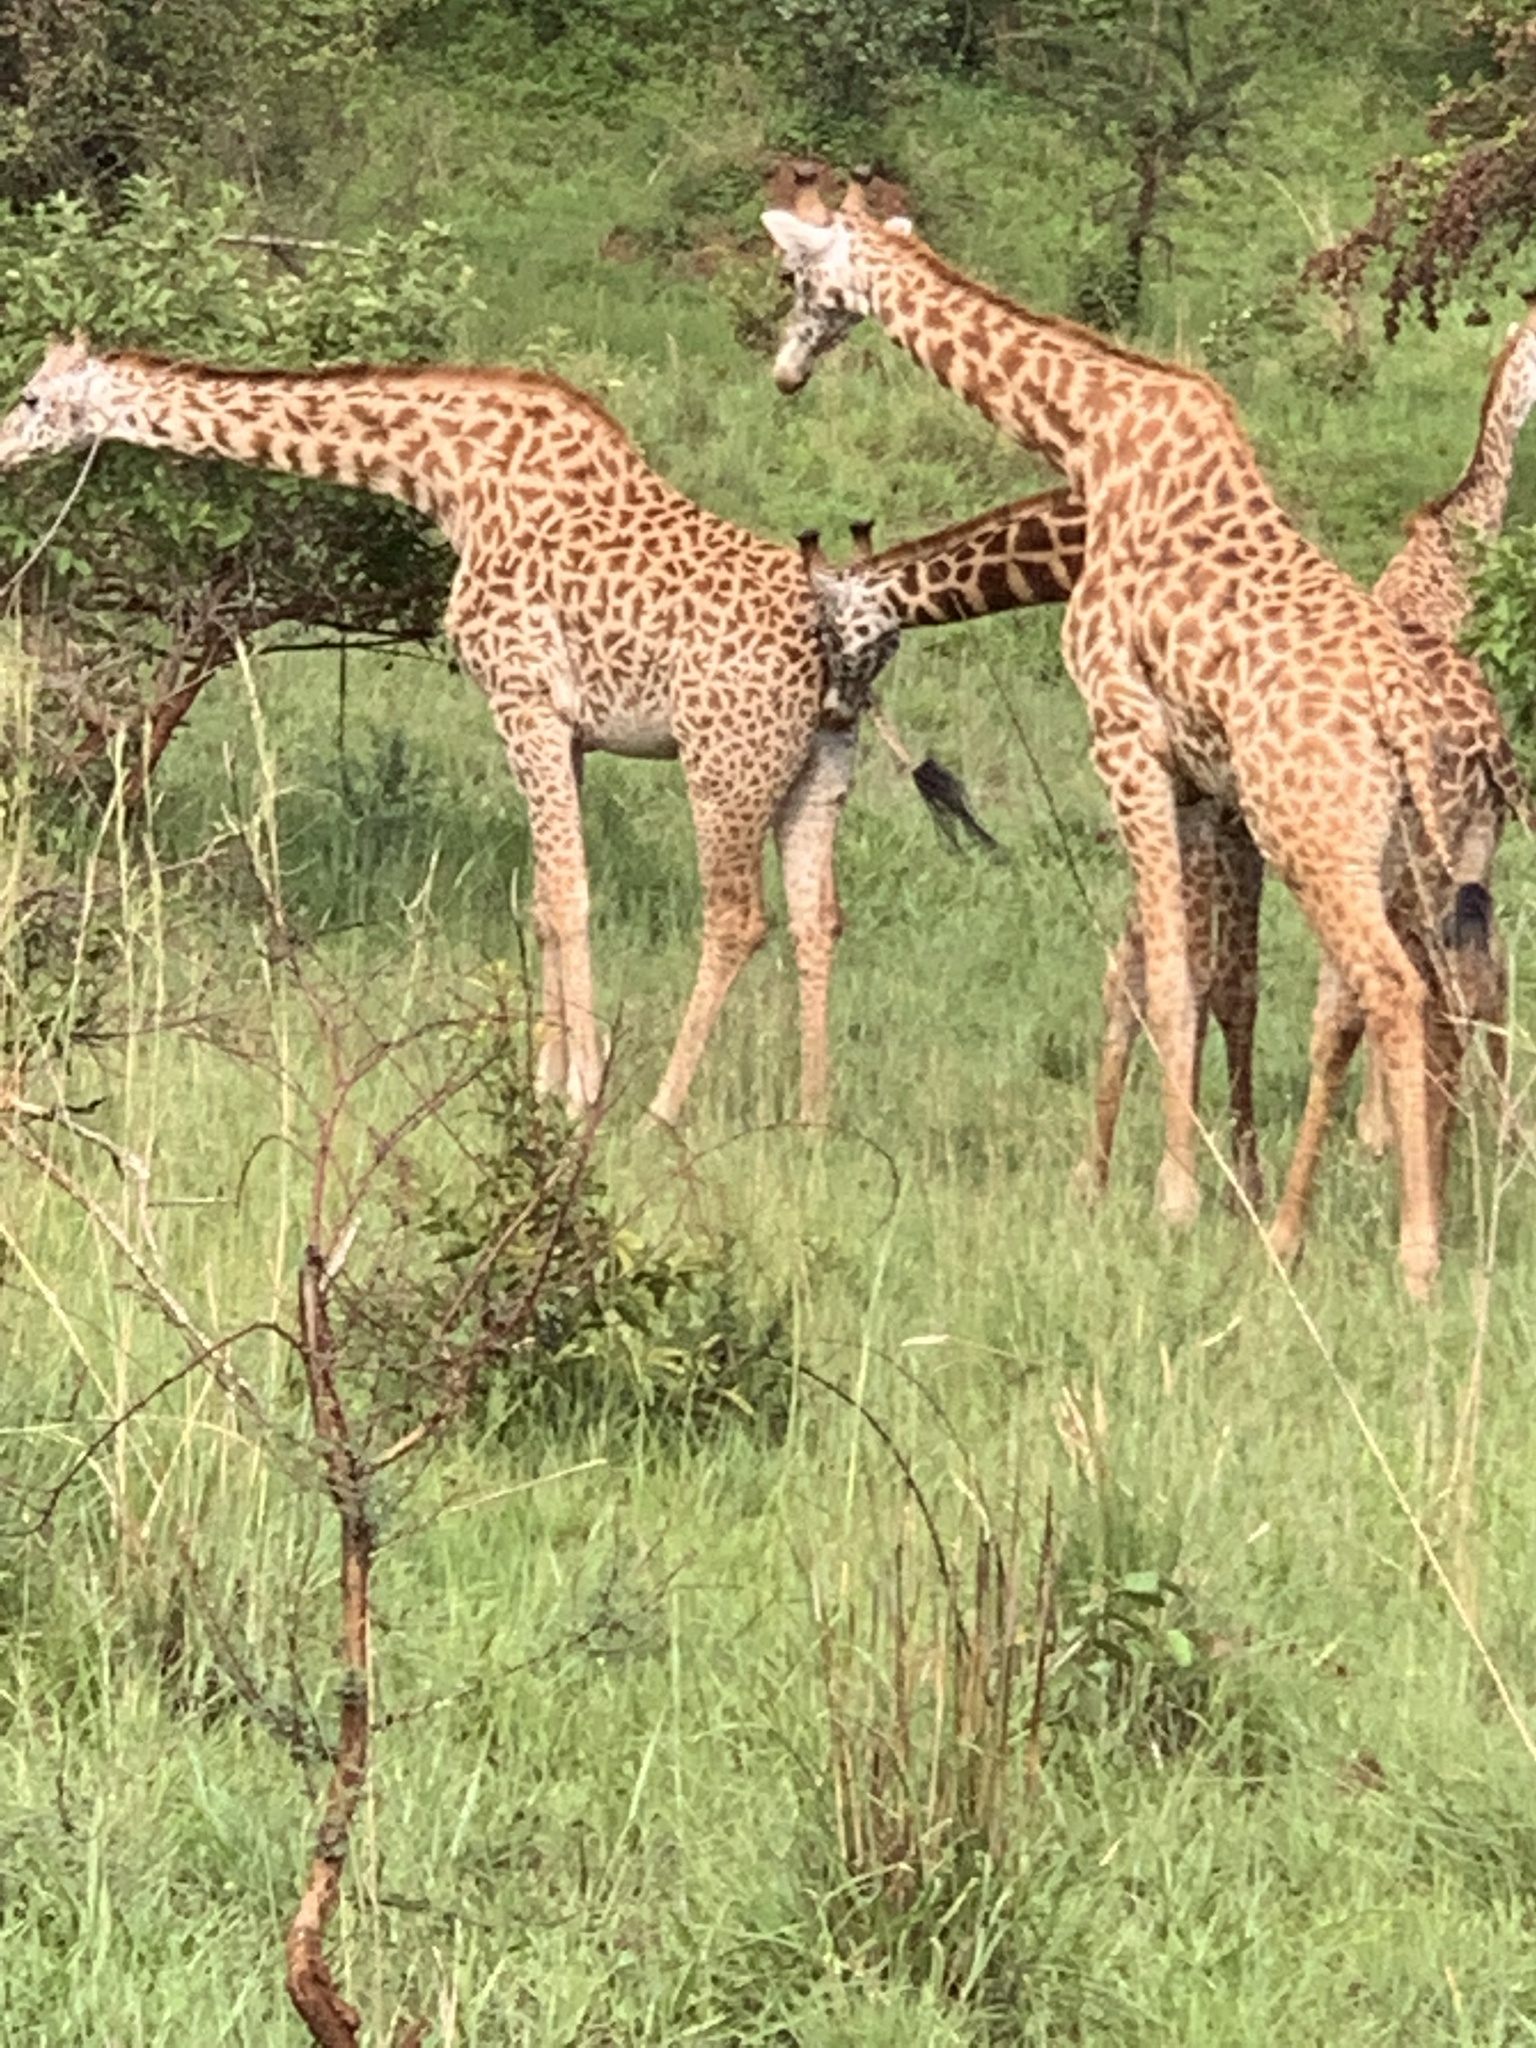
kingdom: Animalia
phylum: Chordata
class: Mammalia
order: Artiodactyla
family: Giraffidae
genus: Giraffa
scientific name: Giraffa tippelskirchi
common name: Masai giraffe
